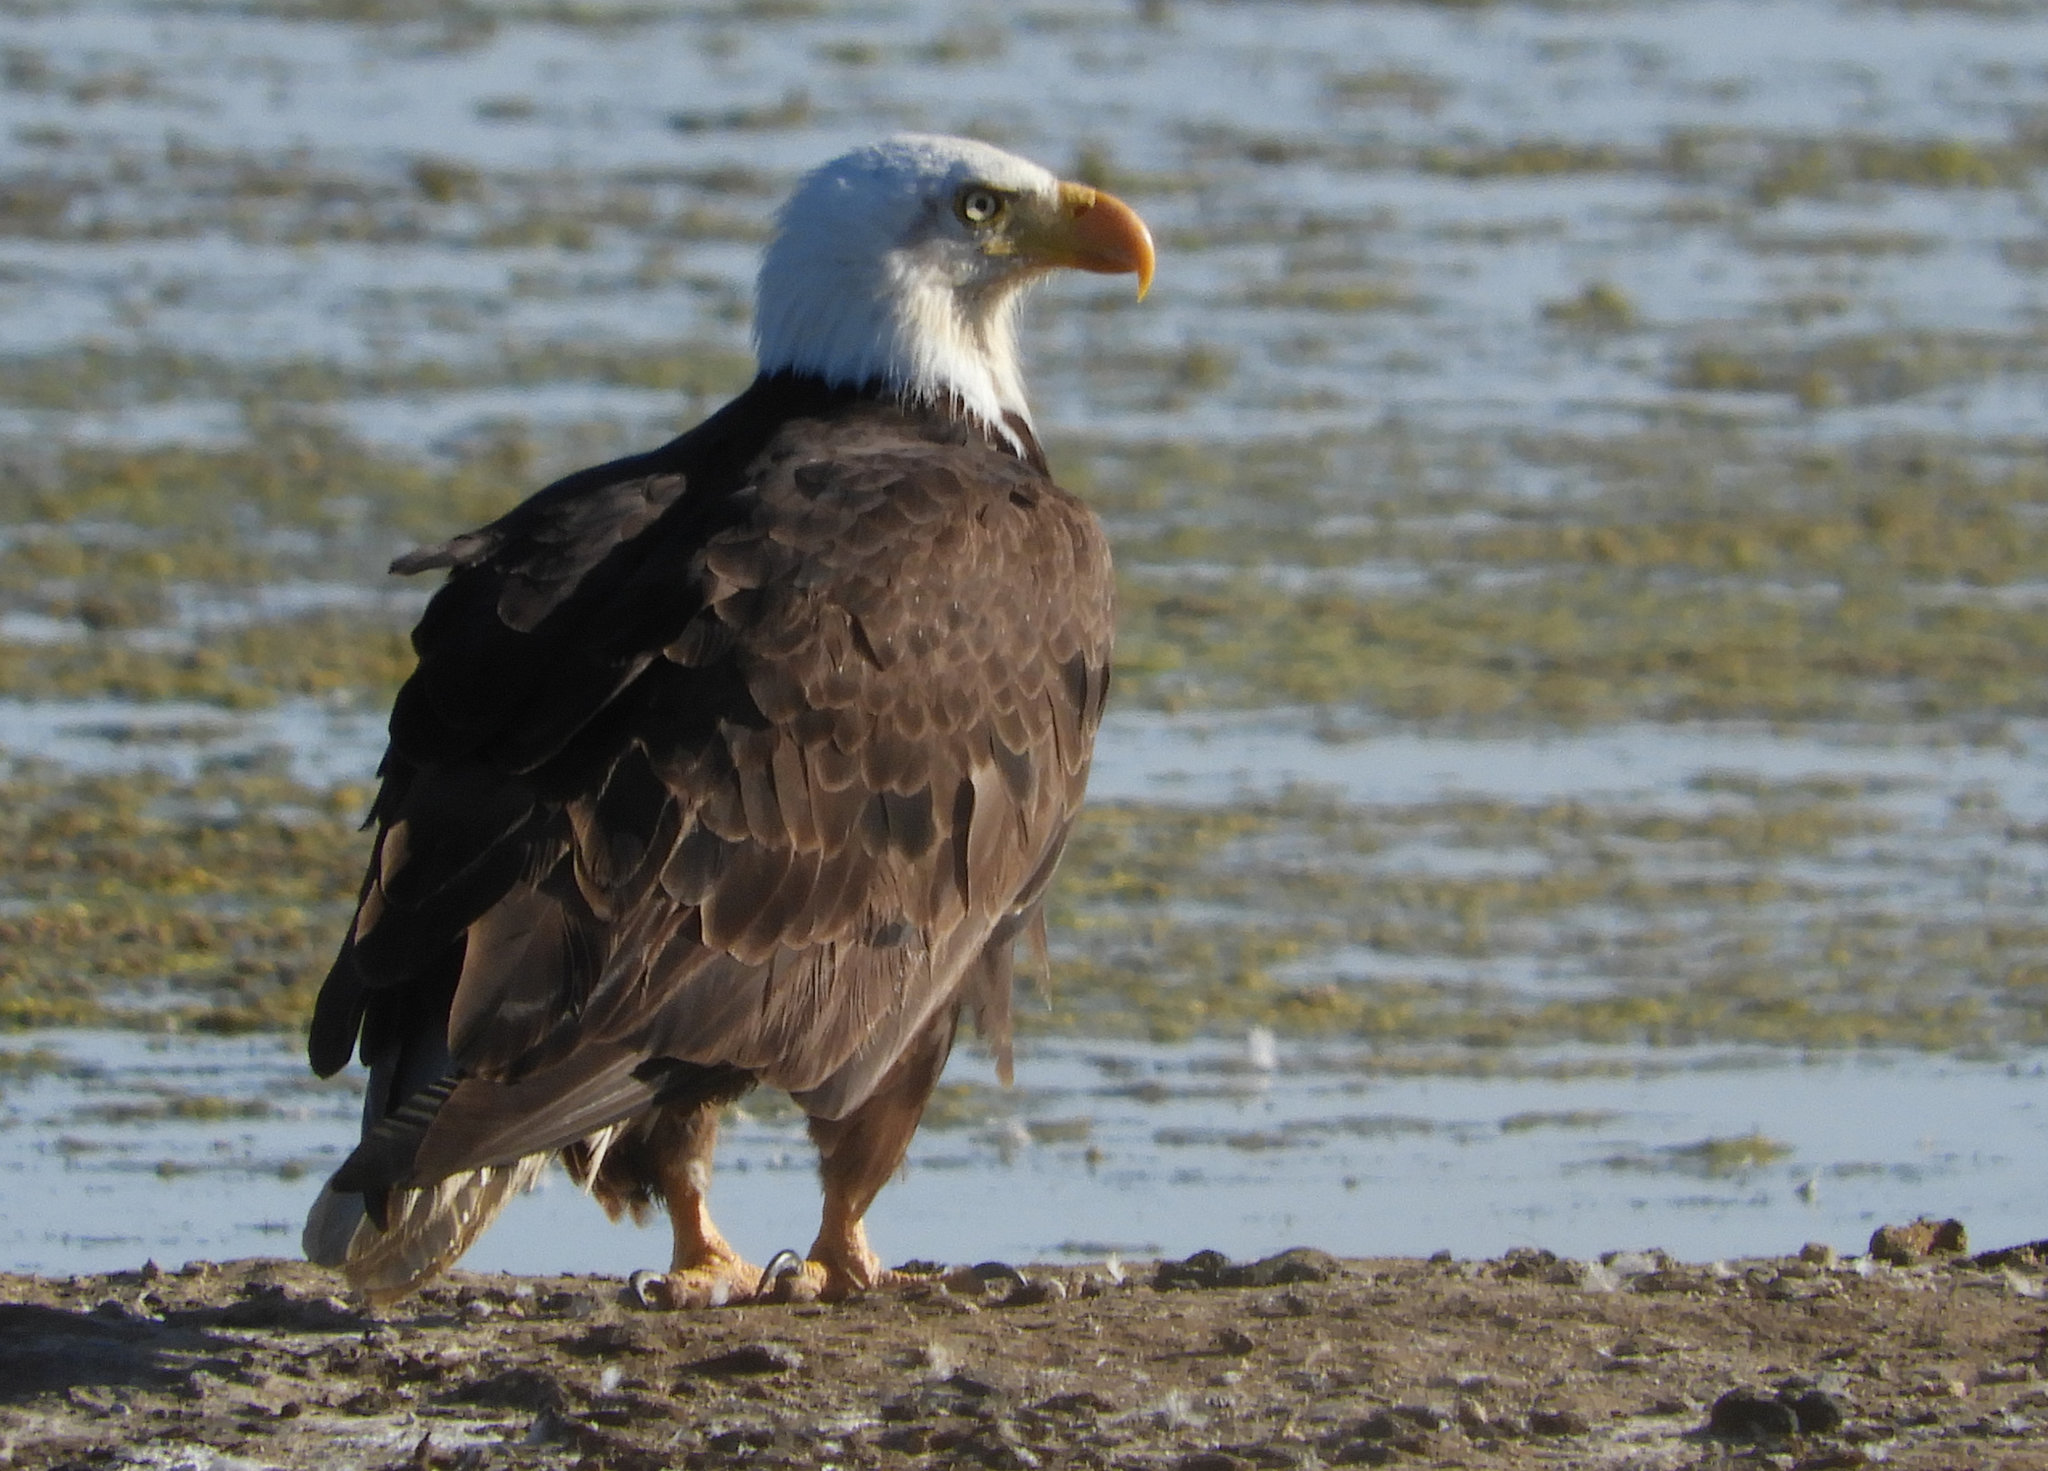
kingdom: Animalia
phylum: Chordata
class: Aves
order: Accipitriformes
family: Accipitridae
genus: Haliaeetus
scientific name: Haliaeetus leucocephalus
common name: Bald eagle
